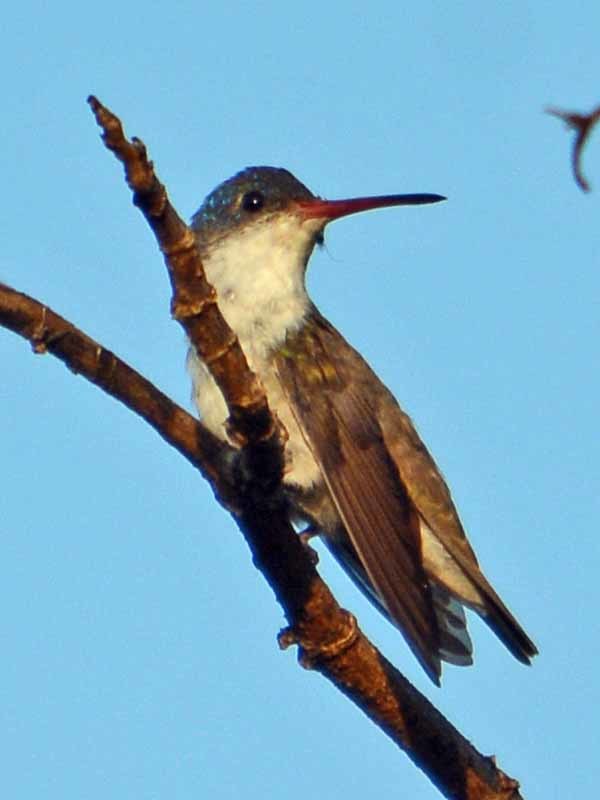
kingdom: Animalia
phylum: Chordata
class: Aves
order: Apodiformes
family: Trochilidae
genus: Leucolia
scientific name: Leucolia violiceps
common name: Violet-crowned hummingbird
